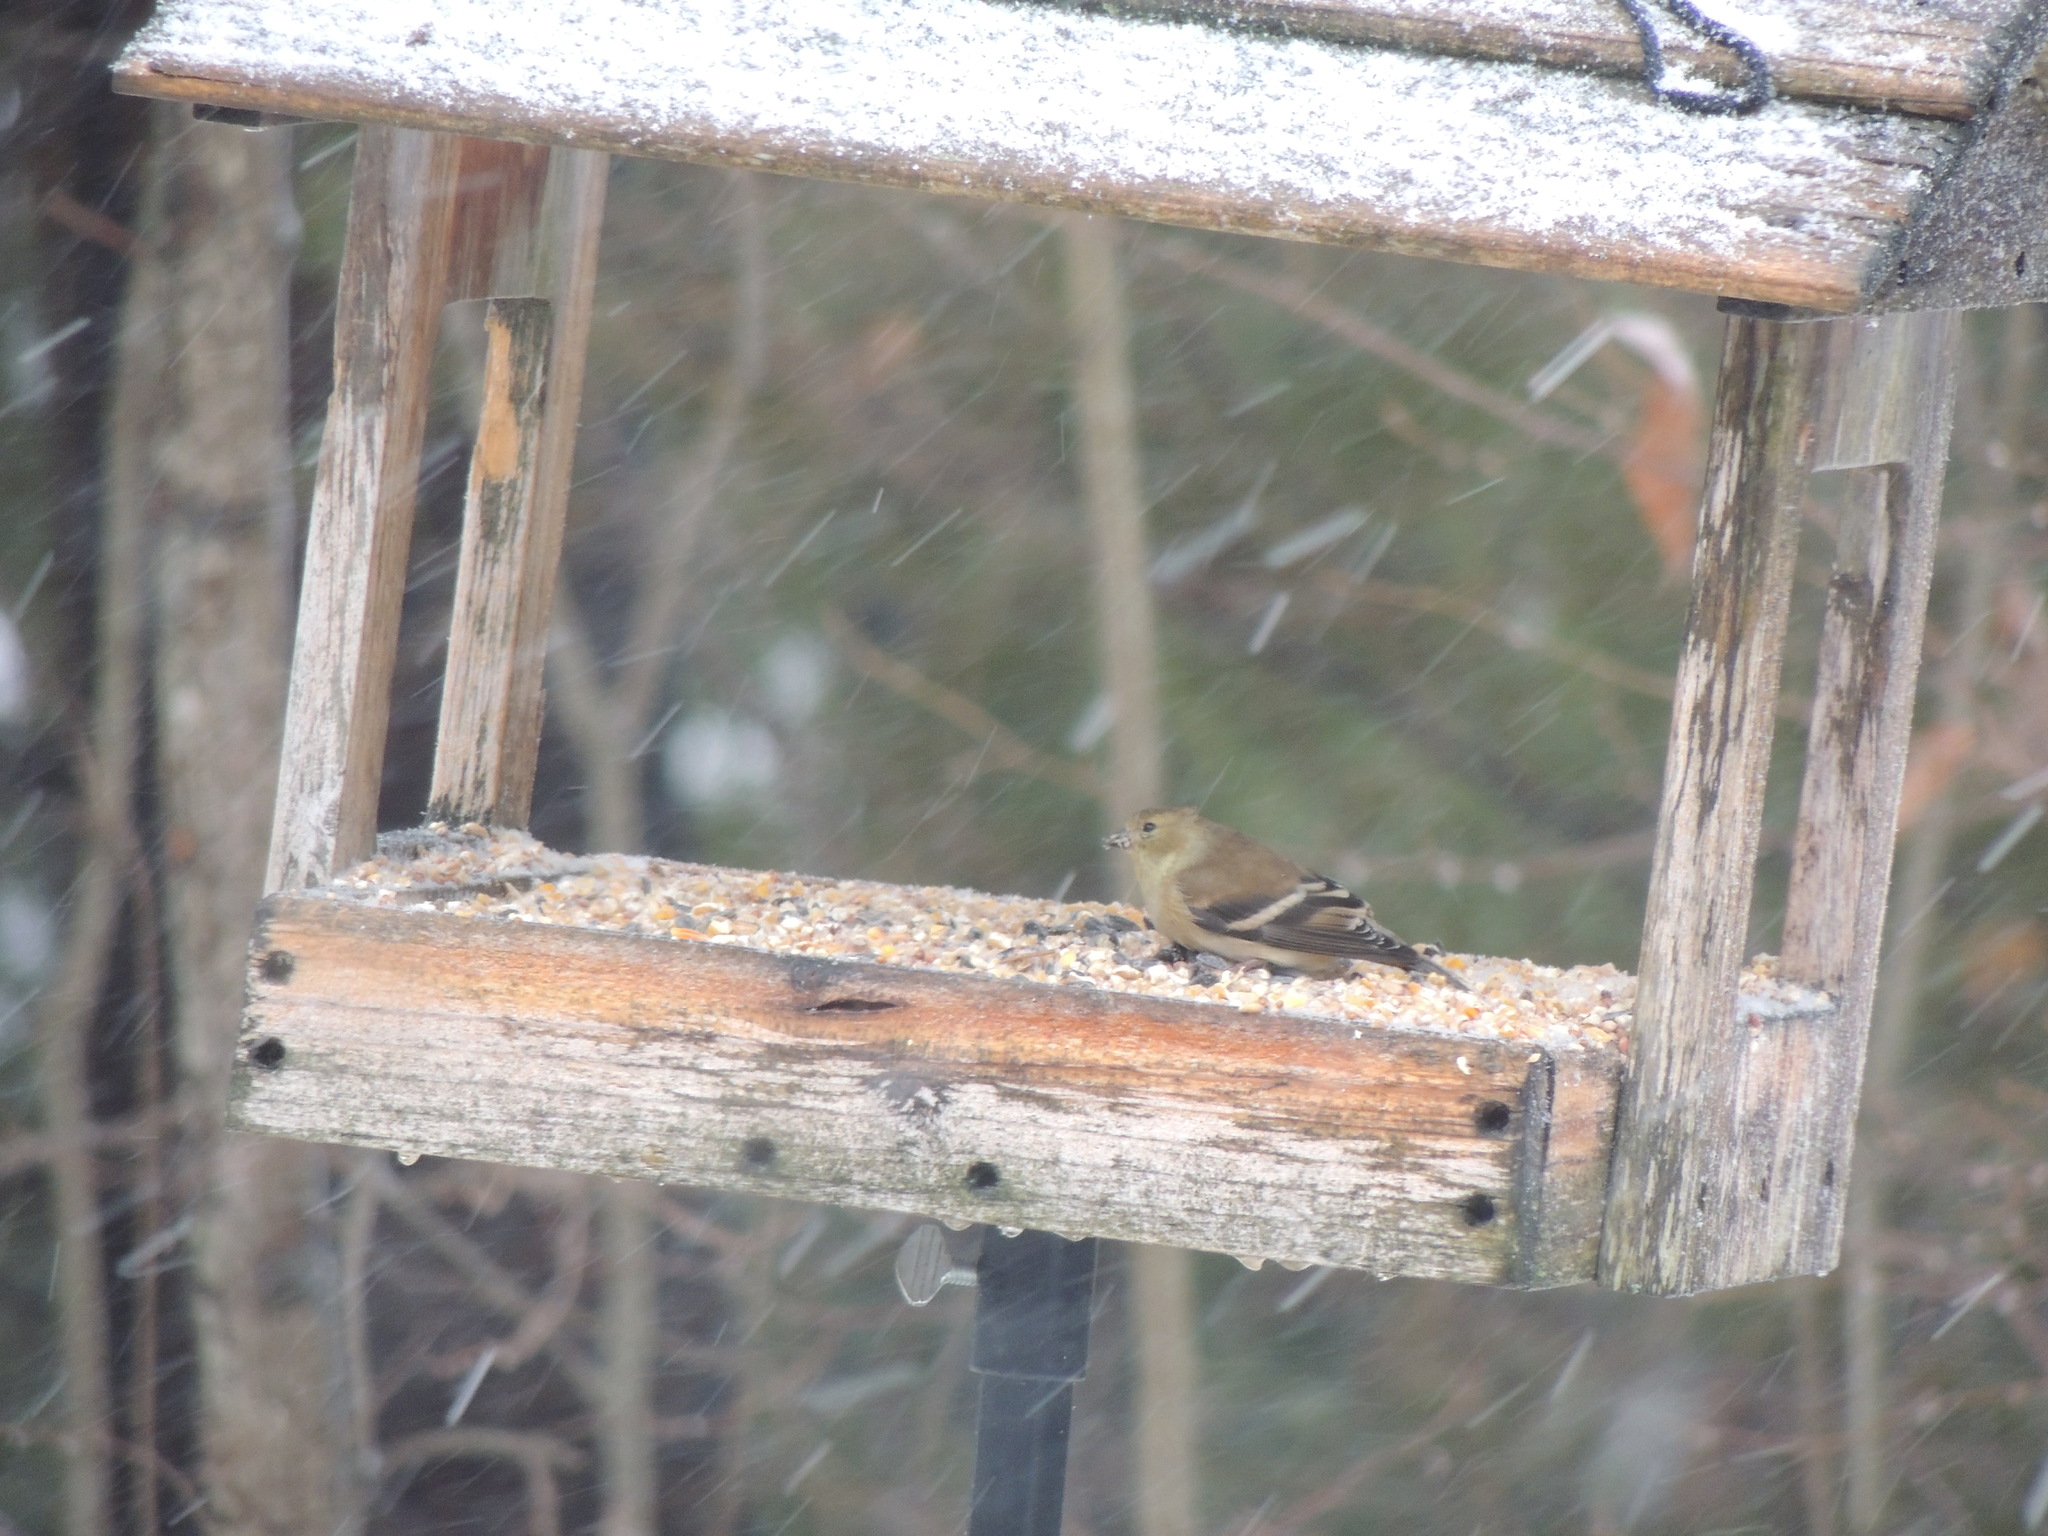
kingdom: Animalia
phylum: Chordata
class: Aves
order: Passeriformes
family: Fringillidae
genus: Spinus
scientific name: Spinus tristis
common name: American goldfinch
